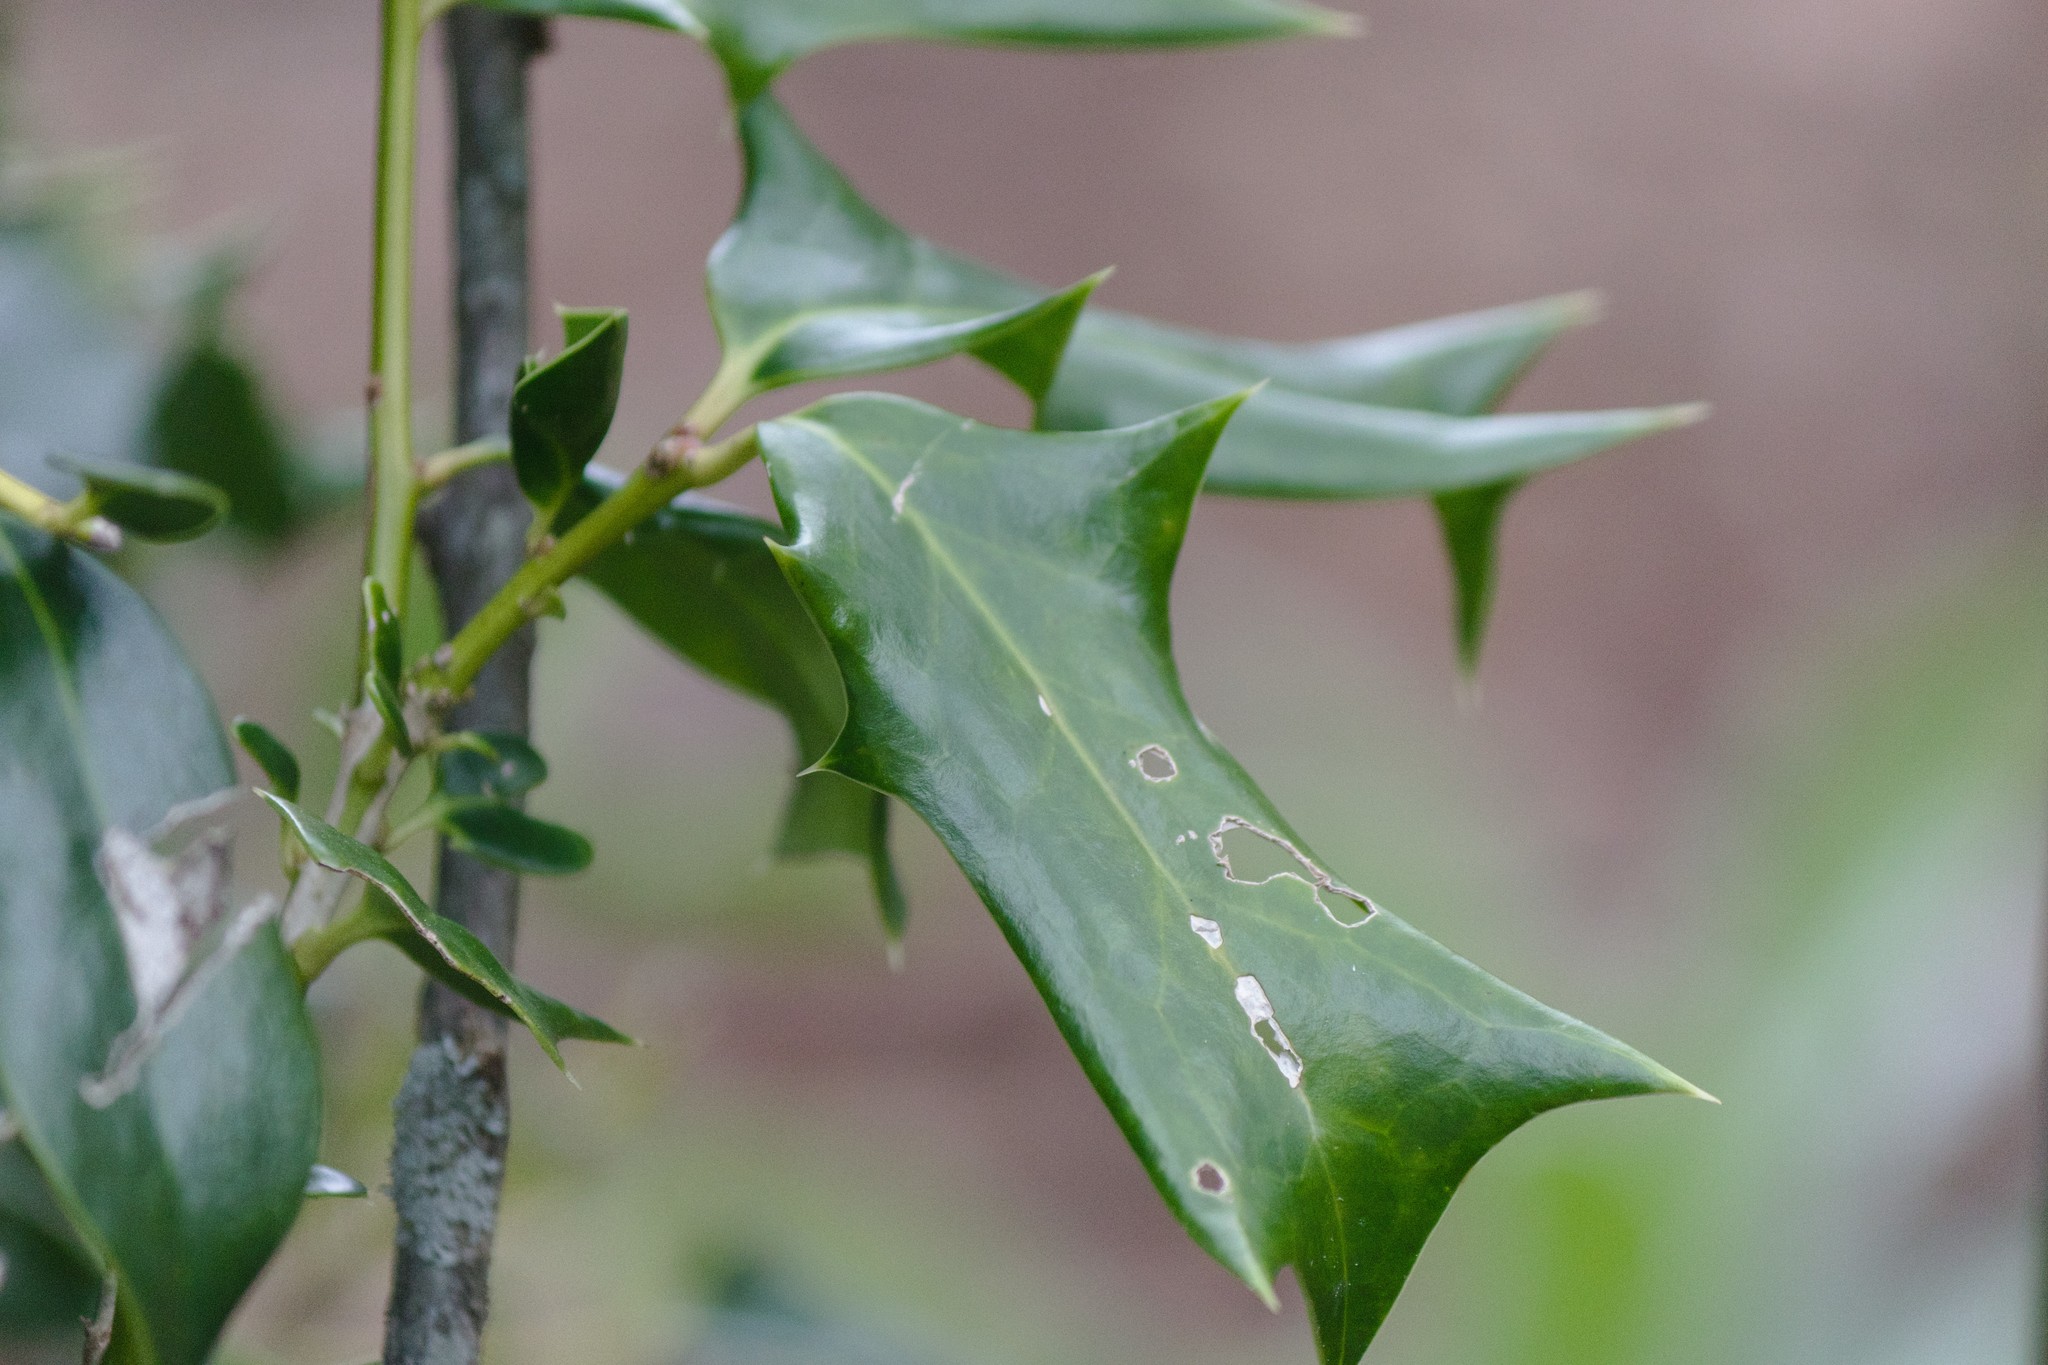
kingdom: Plantae
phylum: Tracheophyta
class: Magnoliopsida
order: Aquifoliales
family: Aquifoliaceae
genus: Ilex
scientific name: Ilex cornuta
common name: Chinese holly
